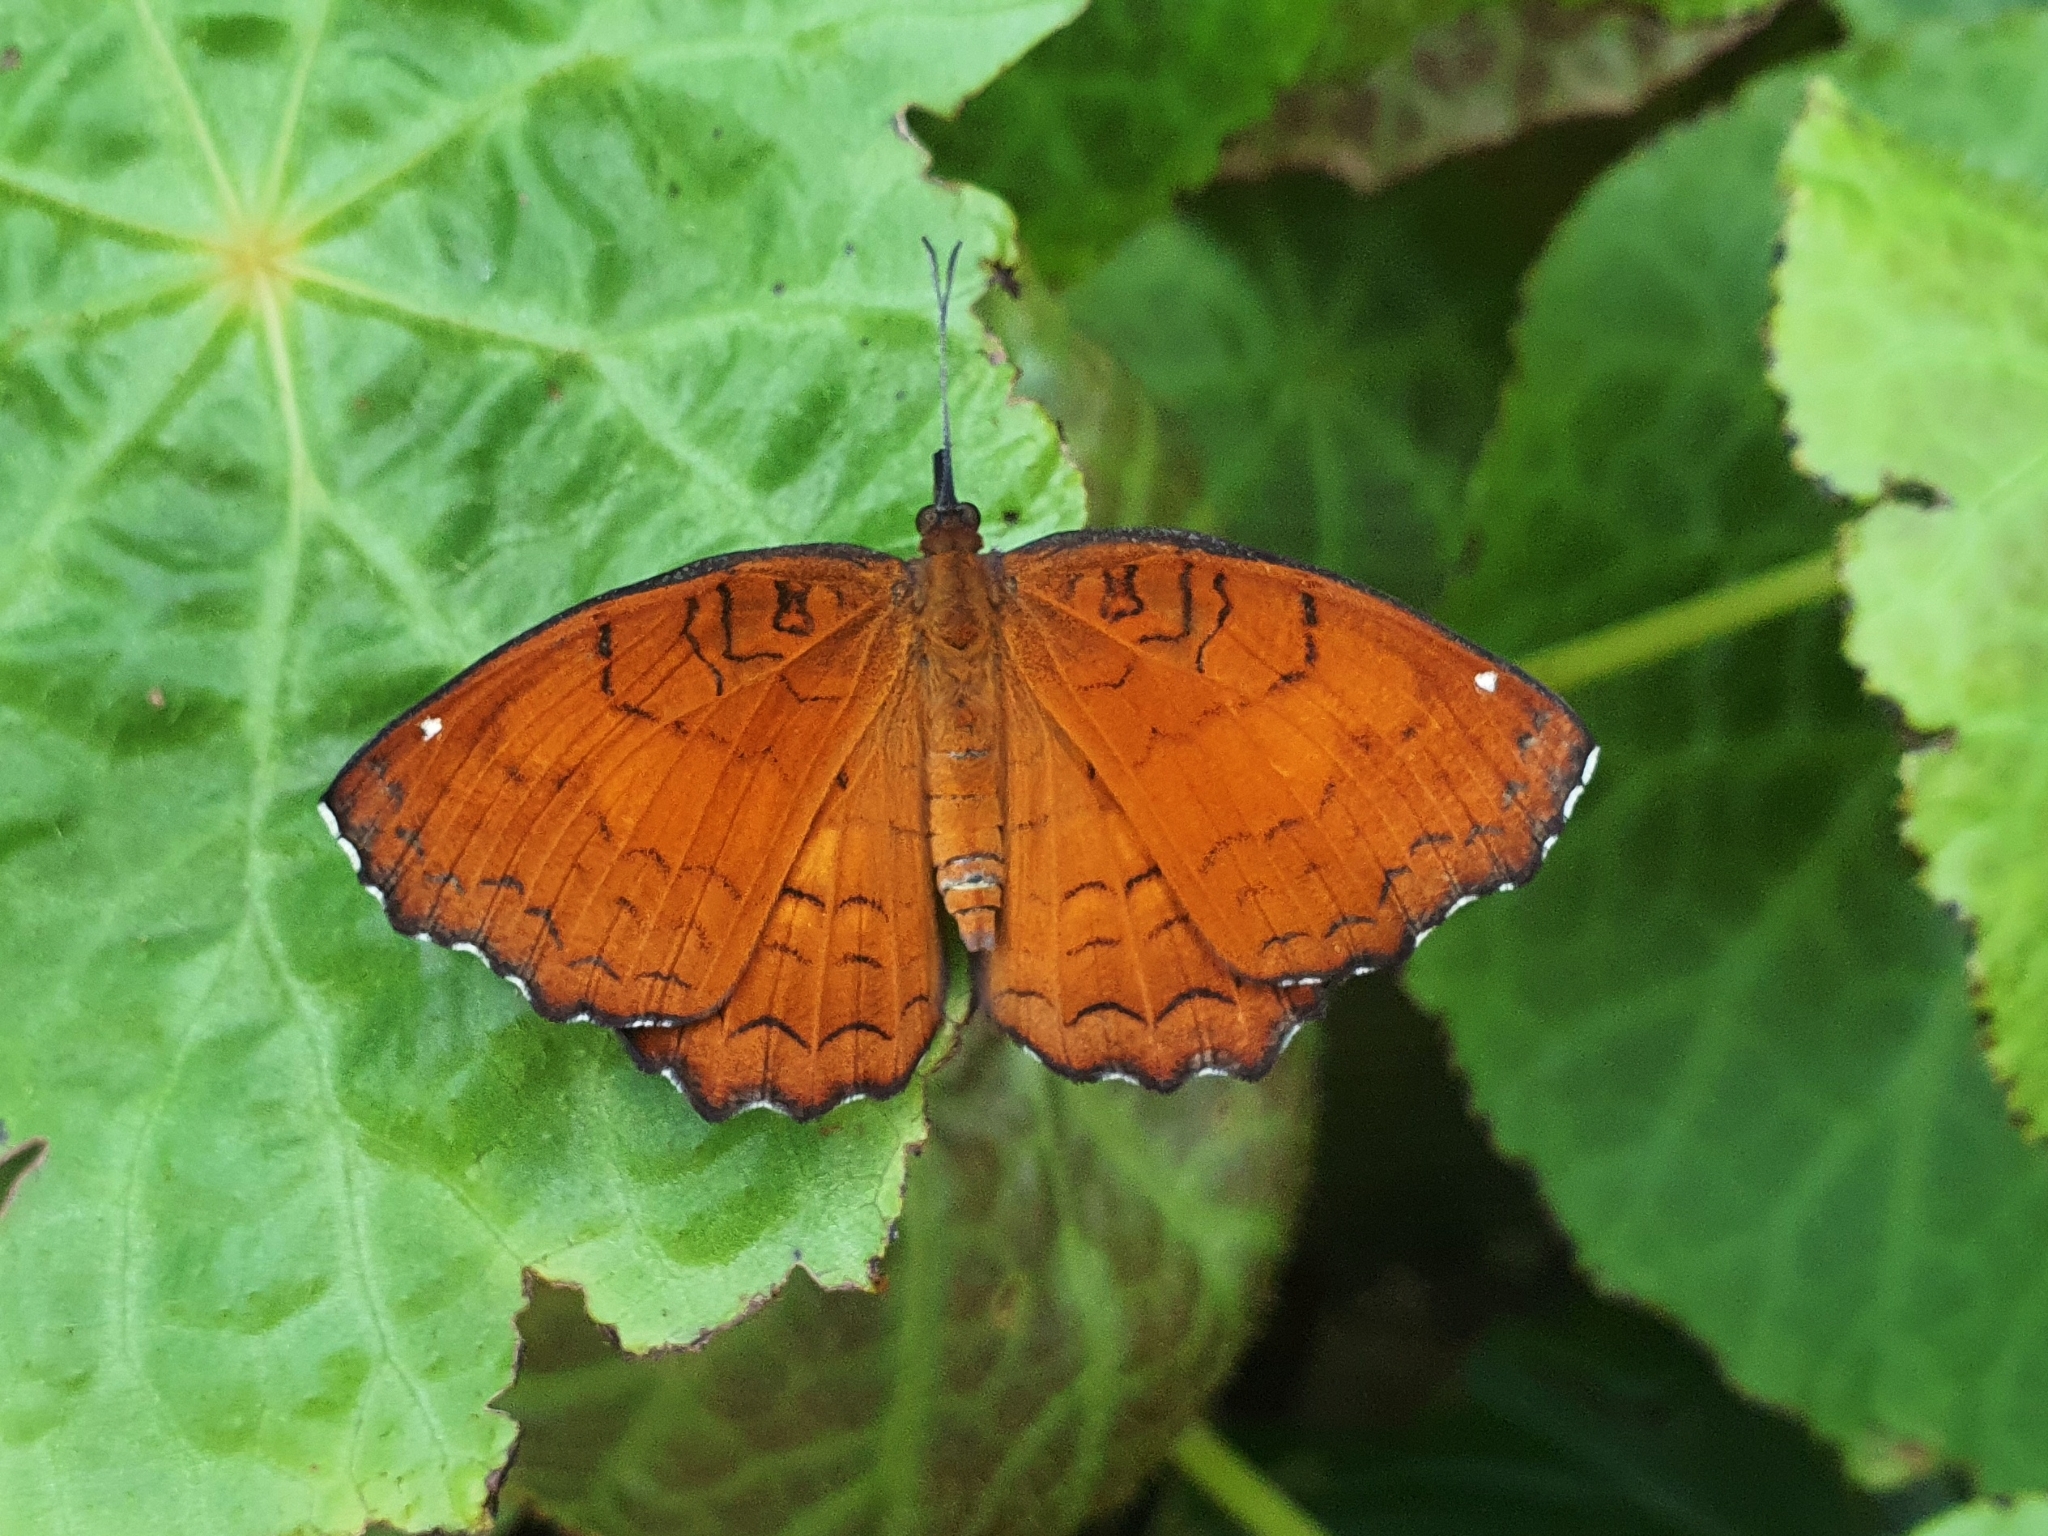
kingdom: Animalia
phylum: Arthropoda
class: Insecta
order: Lepidoptera
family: Nymphalidae
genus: Ariadne
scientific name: Ariadne ariadne
